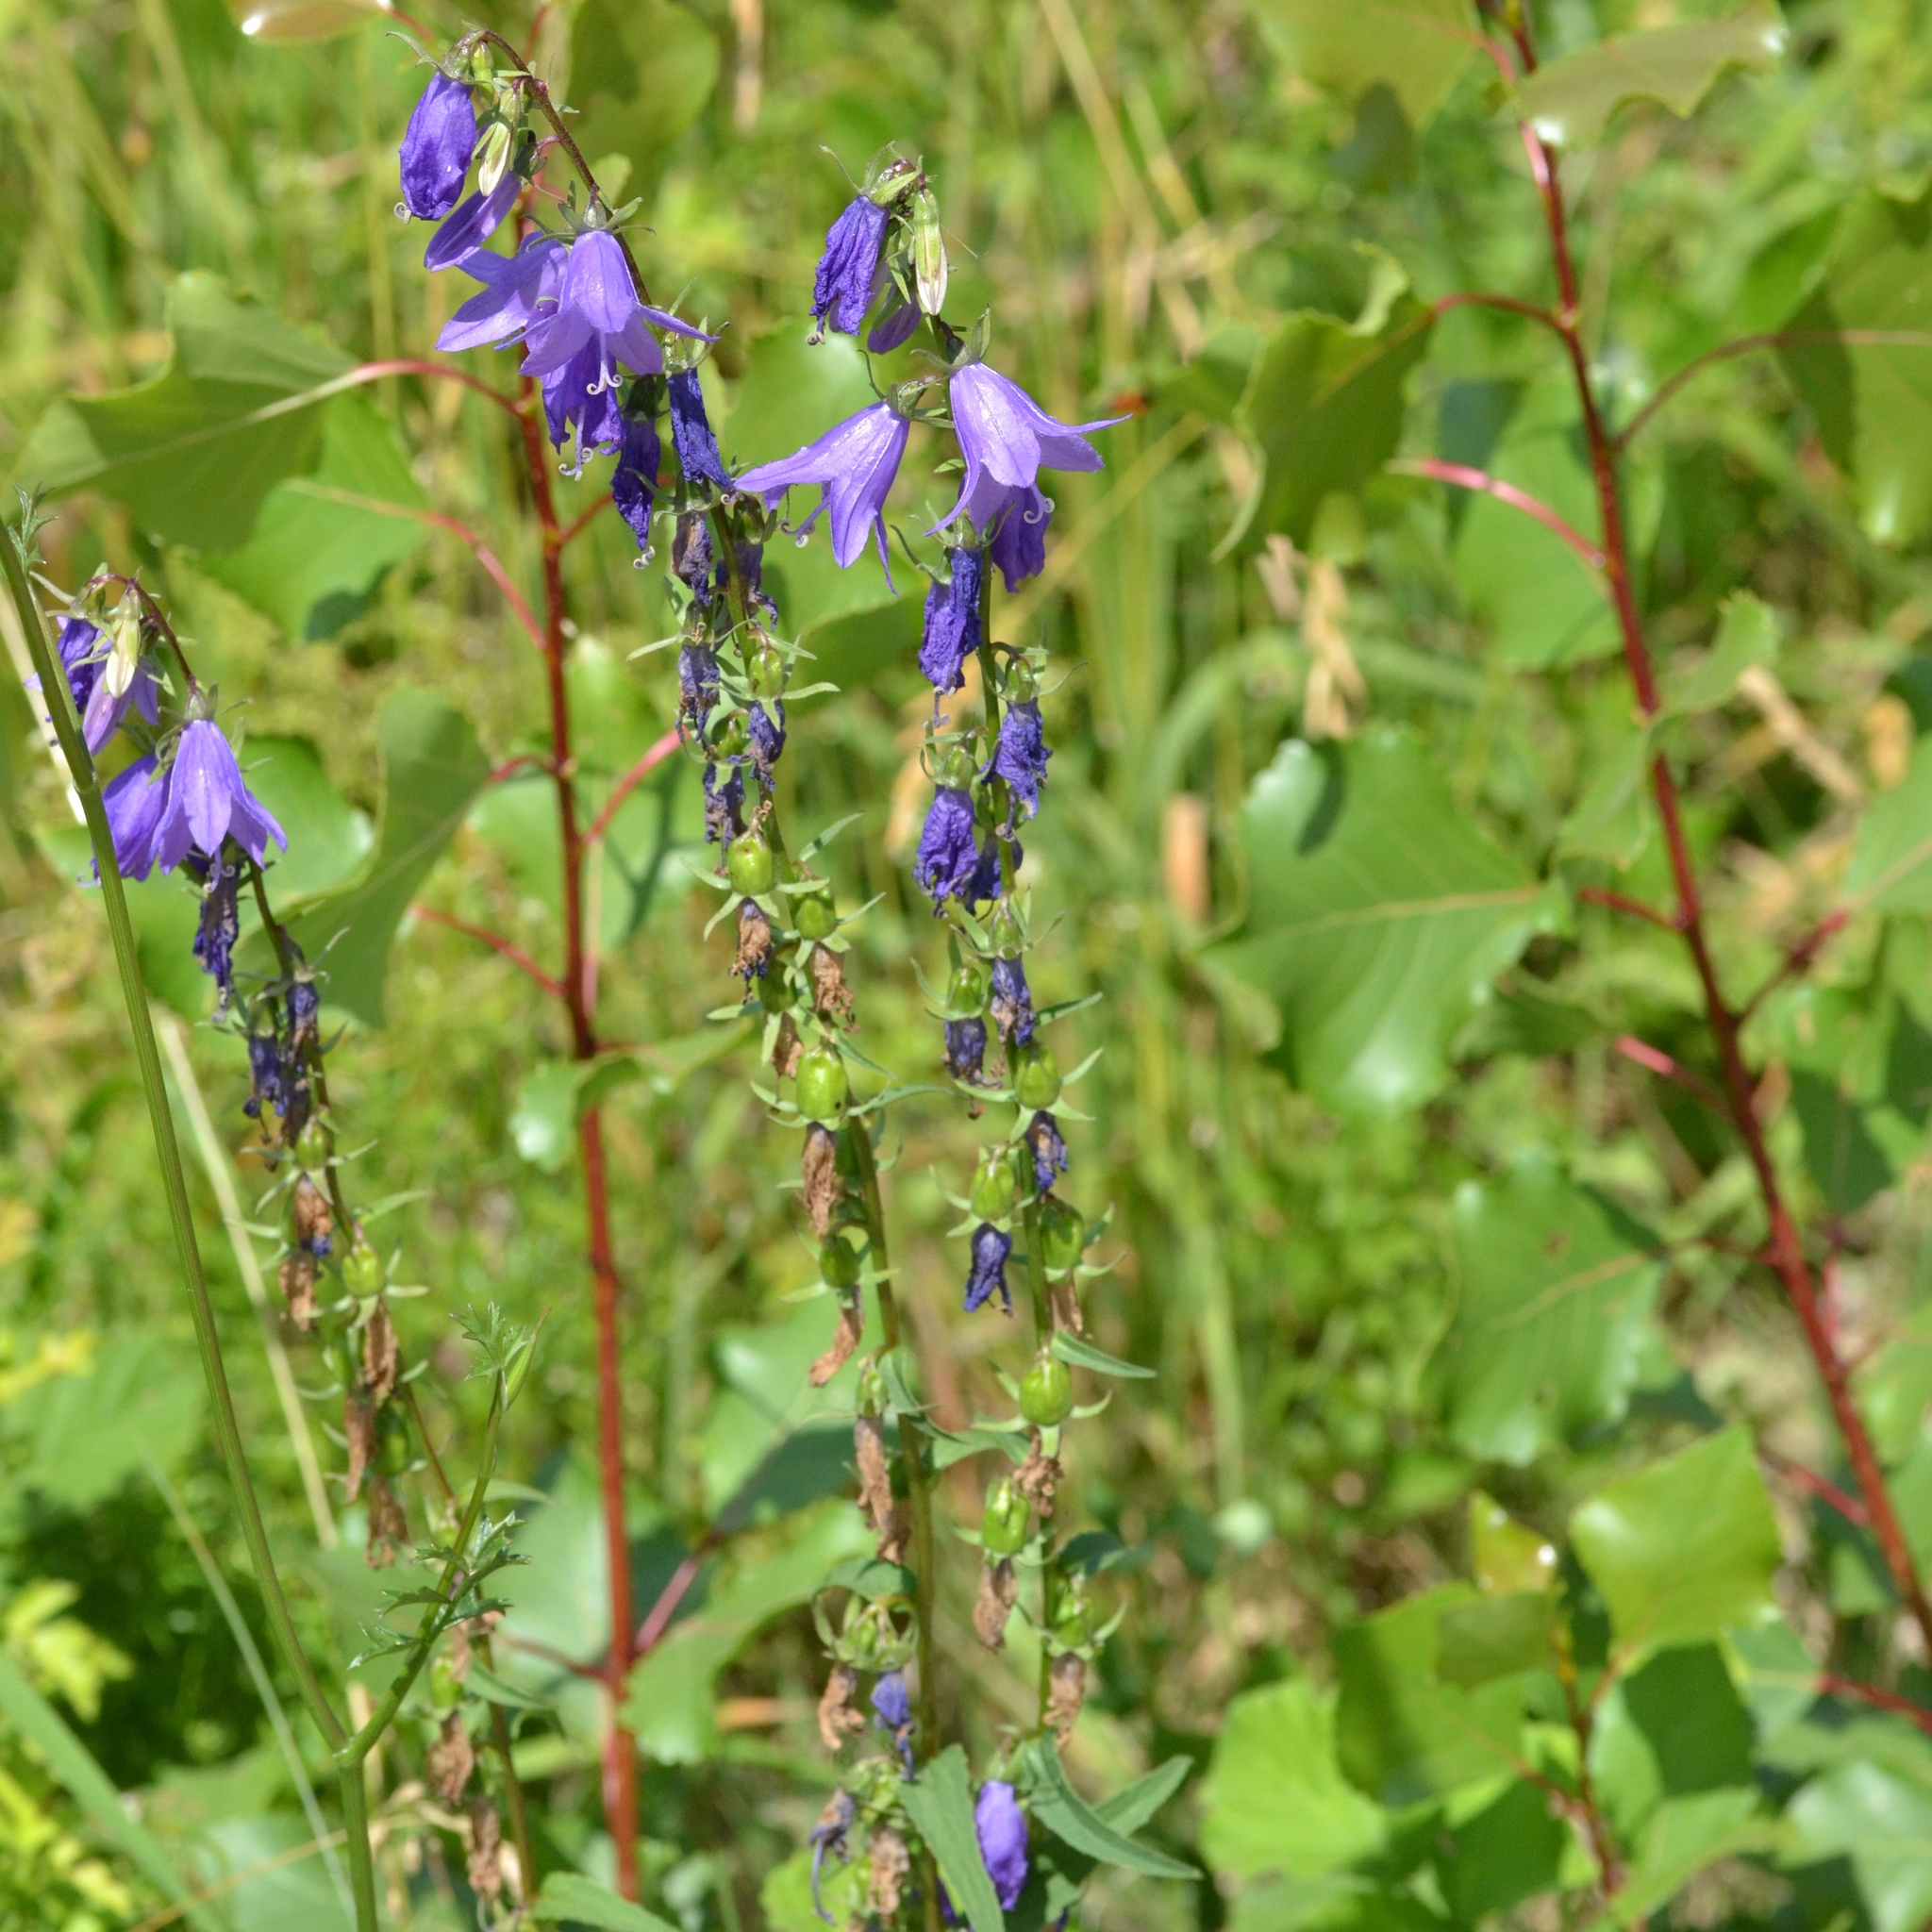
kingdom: Plantae
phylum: Tracheophyta
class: Magnoliopsida
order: Asterales
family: Campanulaceae
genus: Campanula
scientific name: Campanula rapunculoides
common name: Creeping bellflower
